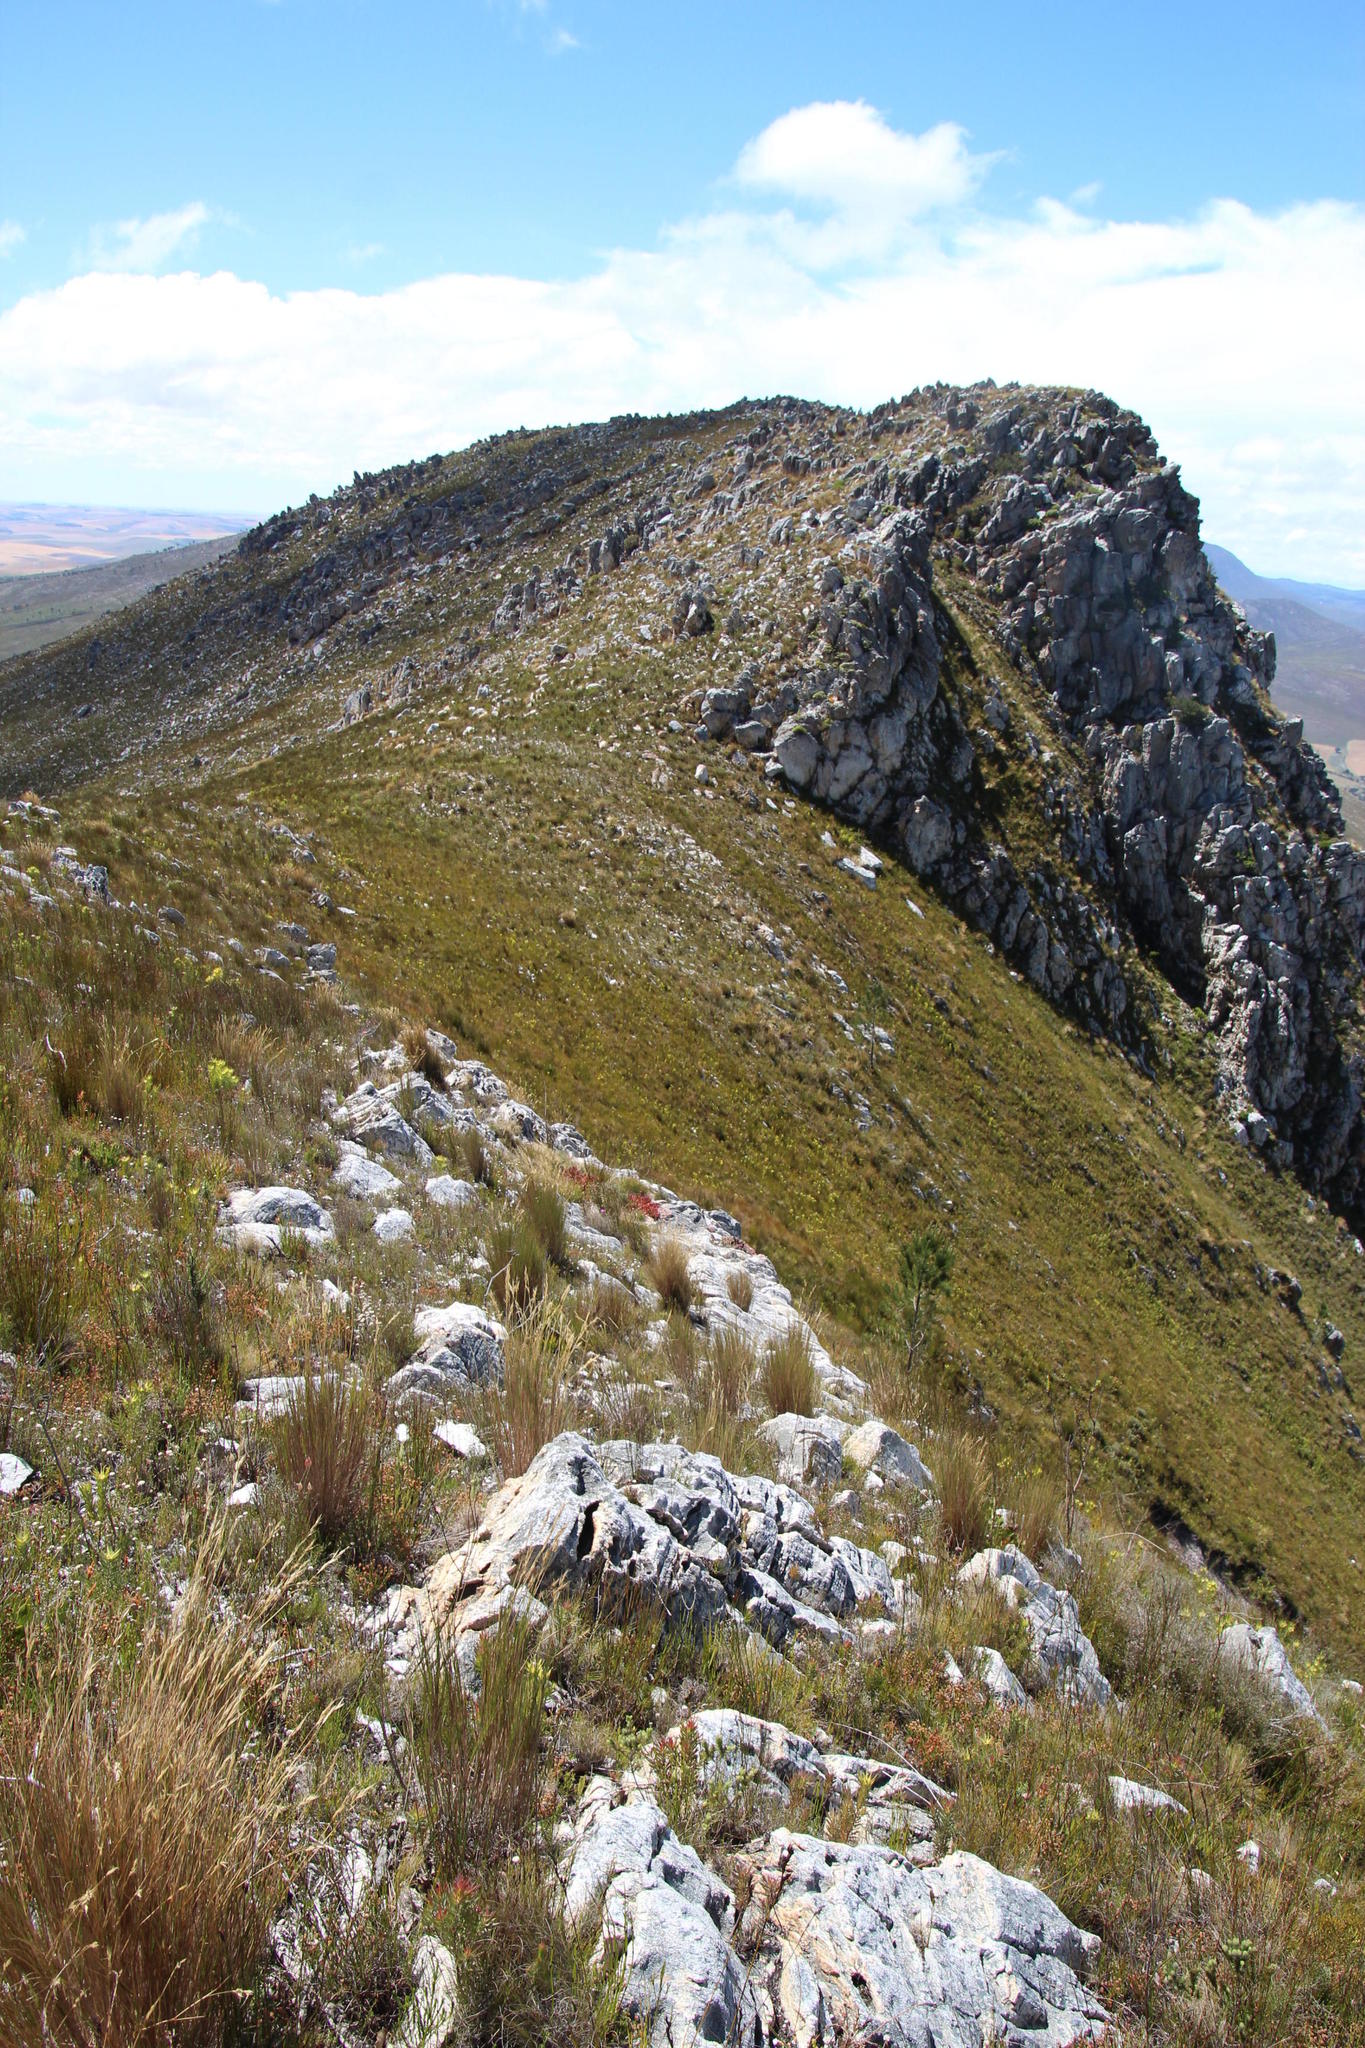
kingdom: Plantae
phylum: Tracheophyta
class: Magnoliopsida
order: Caryophyllales
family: Aizoaceae
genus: Oscularia
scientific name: Oscularia deltoides
